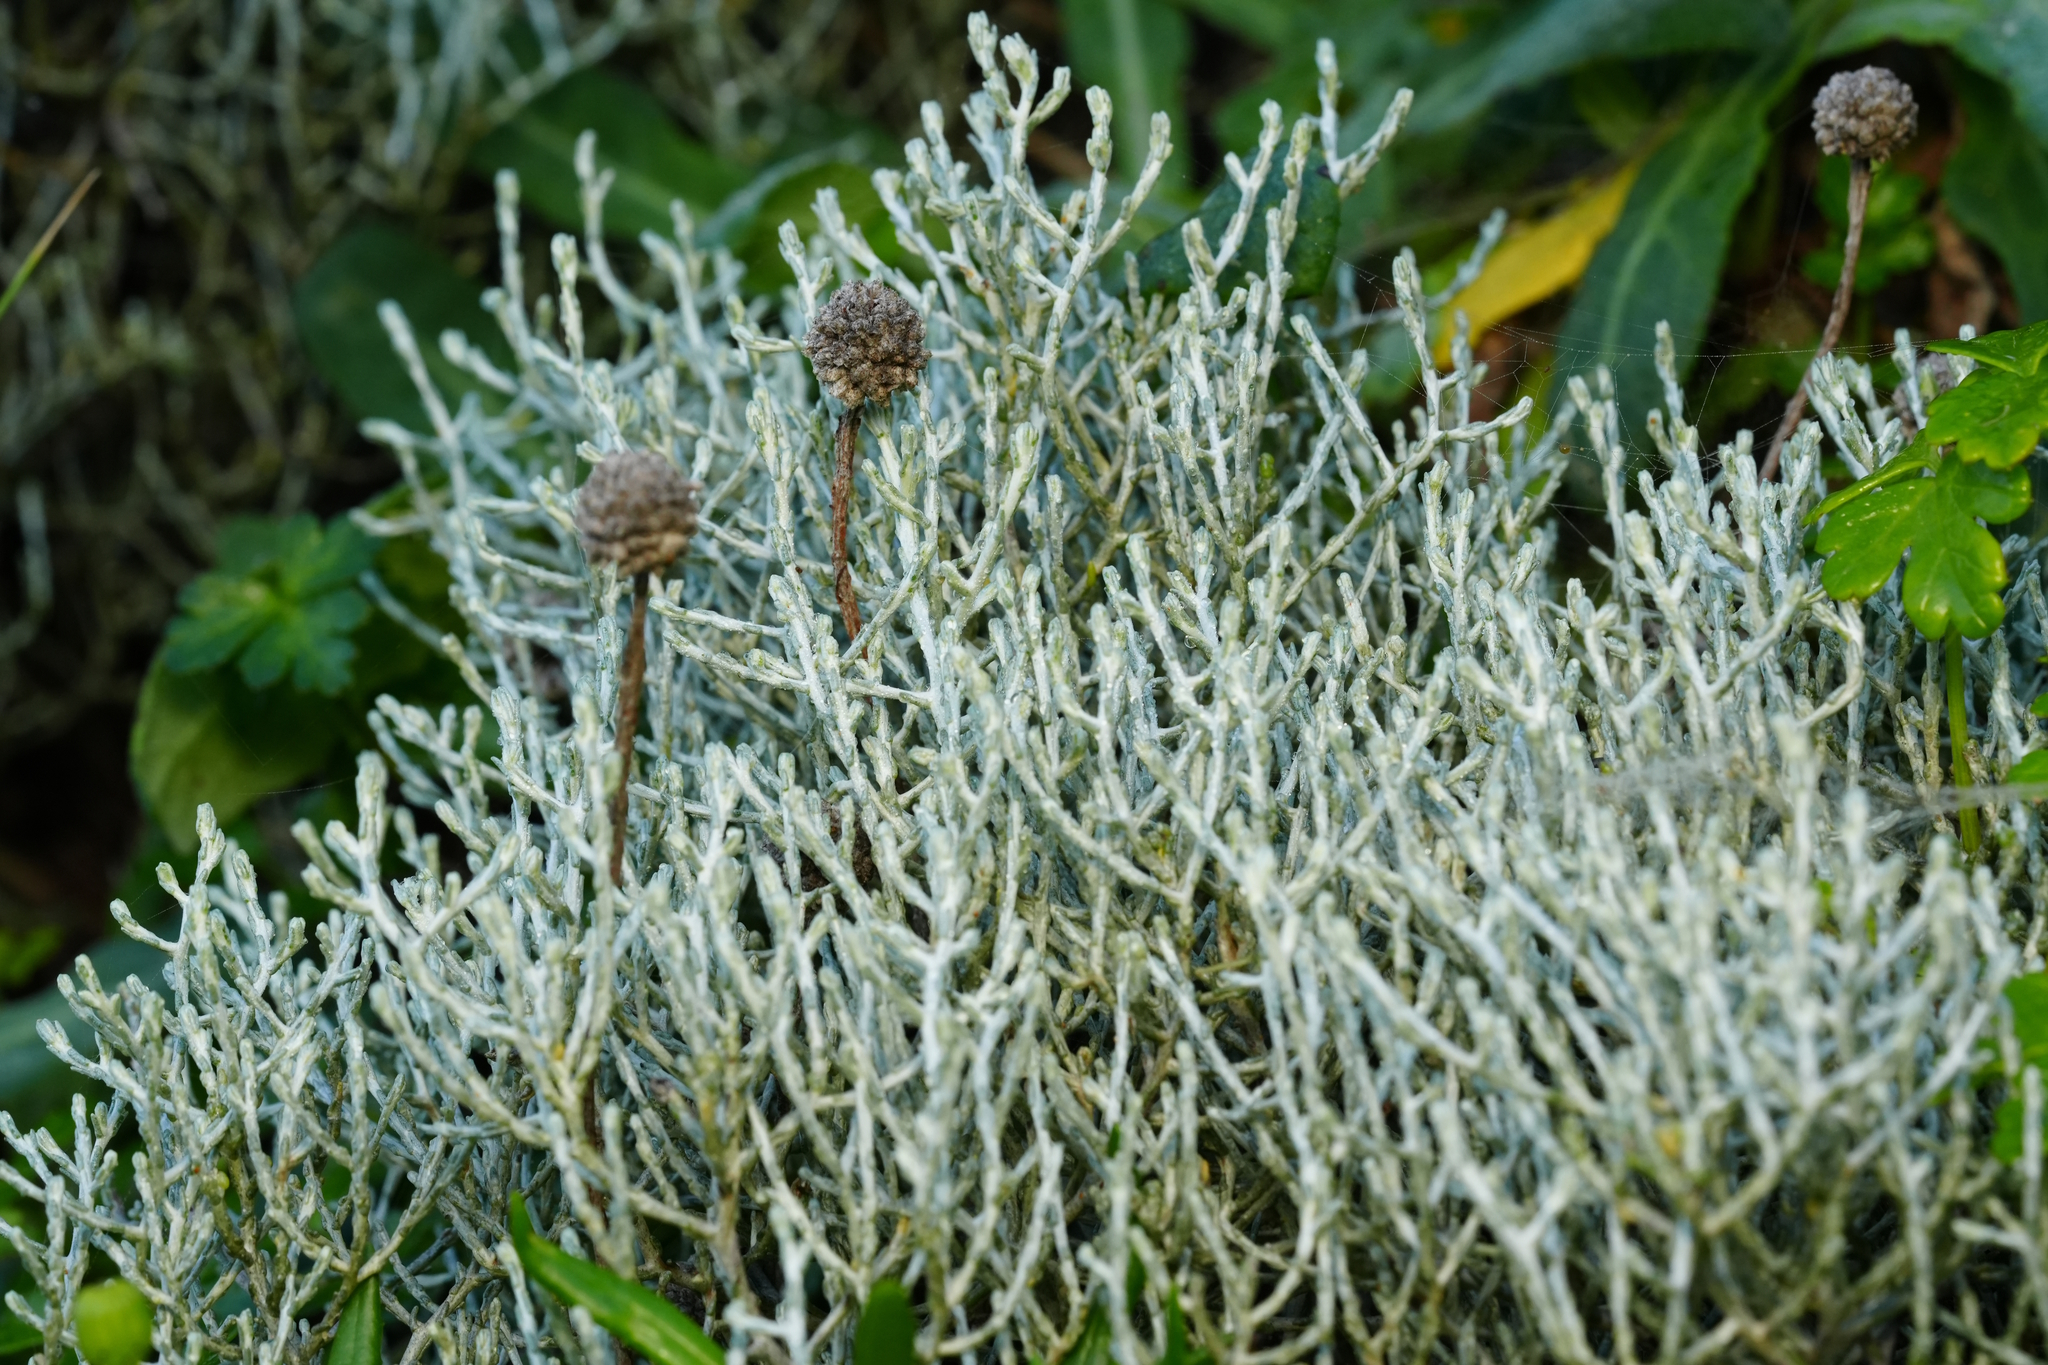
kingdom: Plantae
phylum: Tracheophyta
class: Magnoliopsida
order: Asterales
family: Asteraceae
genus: Calocephalus
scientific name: Calocephalus brownii
